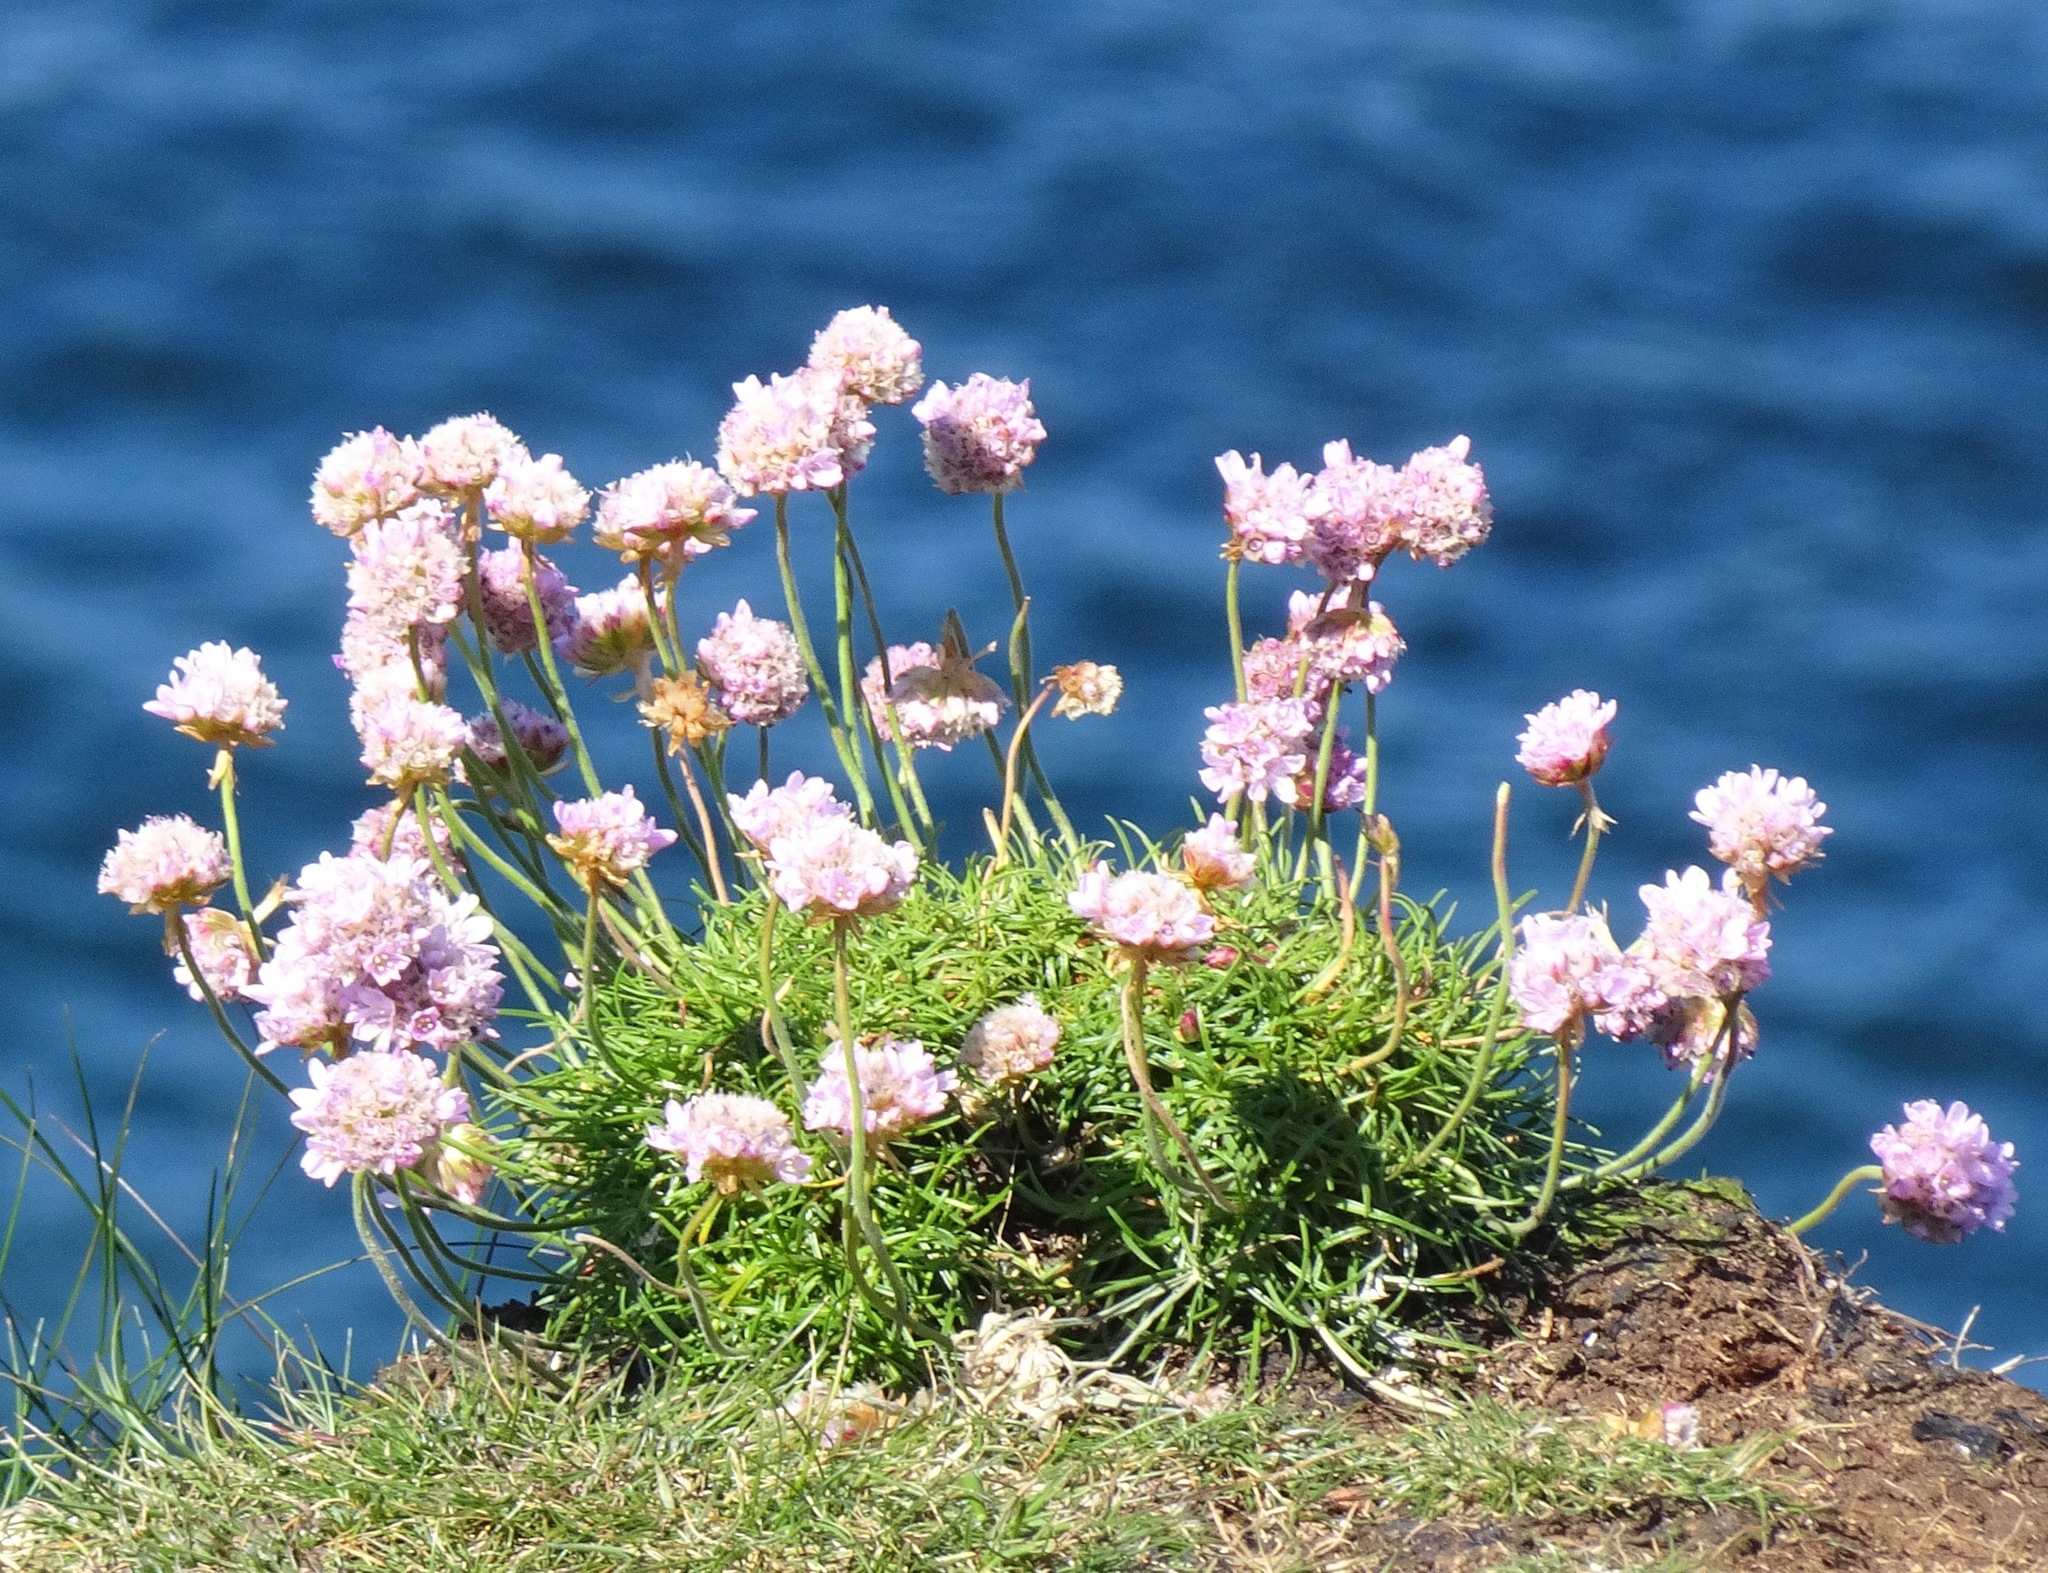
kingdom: Plantae
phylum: Tracheophyta
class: Magnoliopsida
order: Caryophyllales
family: Plumbaginaceae
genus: Armeria
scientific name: Armeria maritima
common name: Thrift
